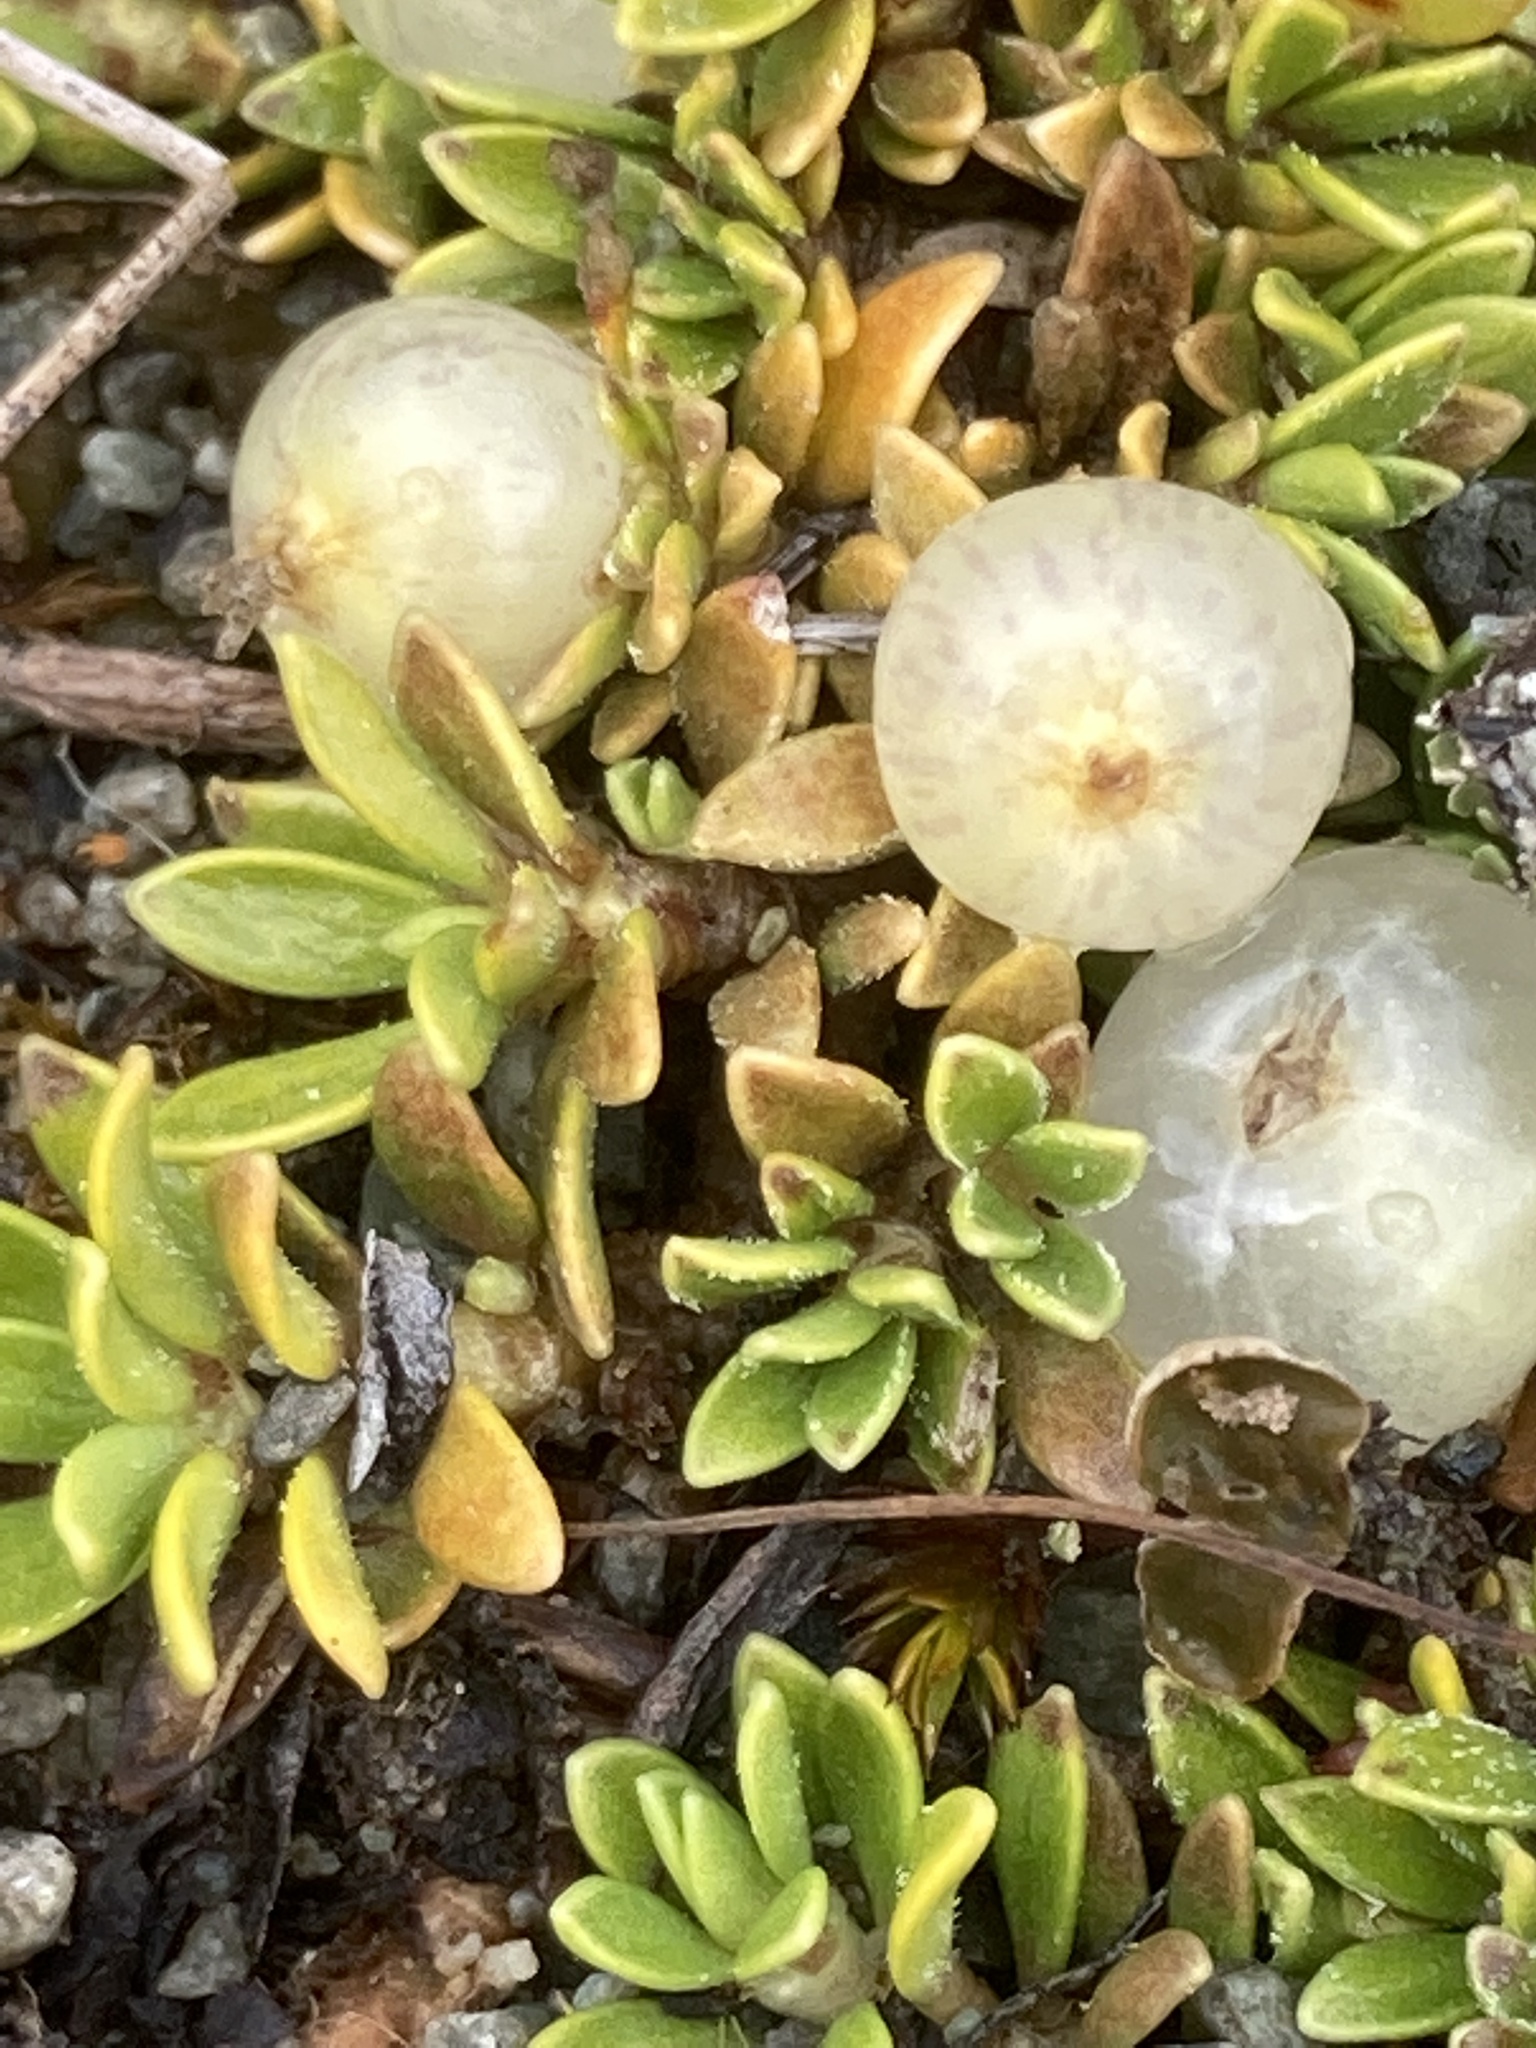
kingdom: Plantae
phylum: Tracheophyta
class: Magnoliopsida
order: Gentianales
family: Rubiaceae
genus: Coprosma
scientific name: Coprosma petriei
